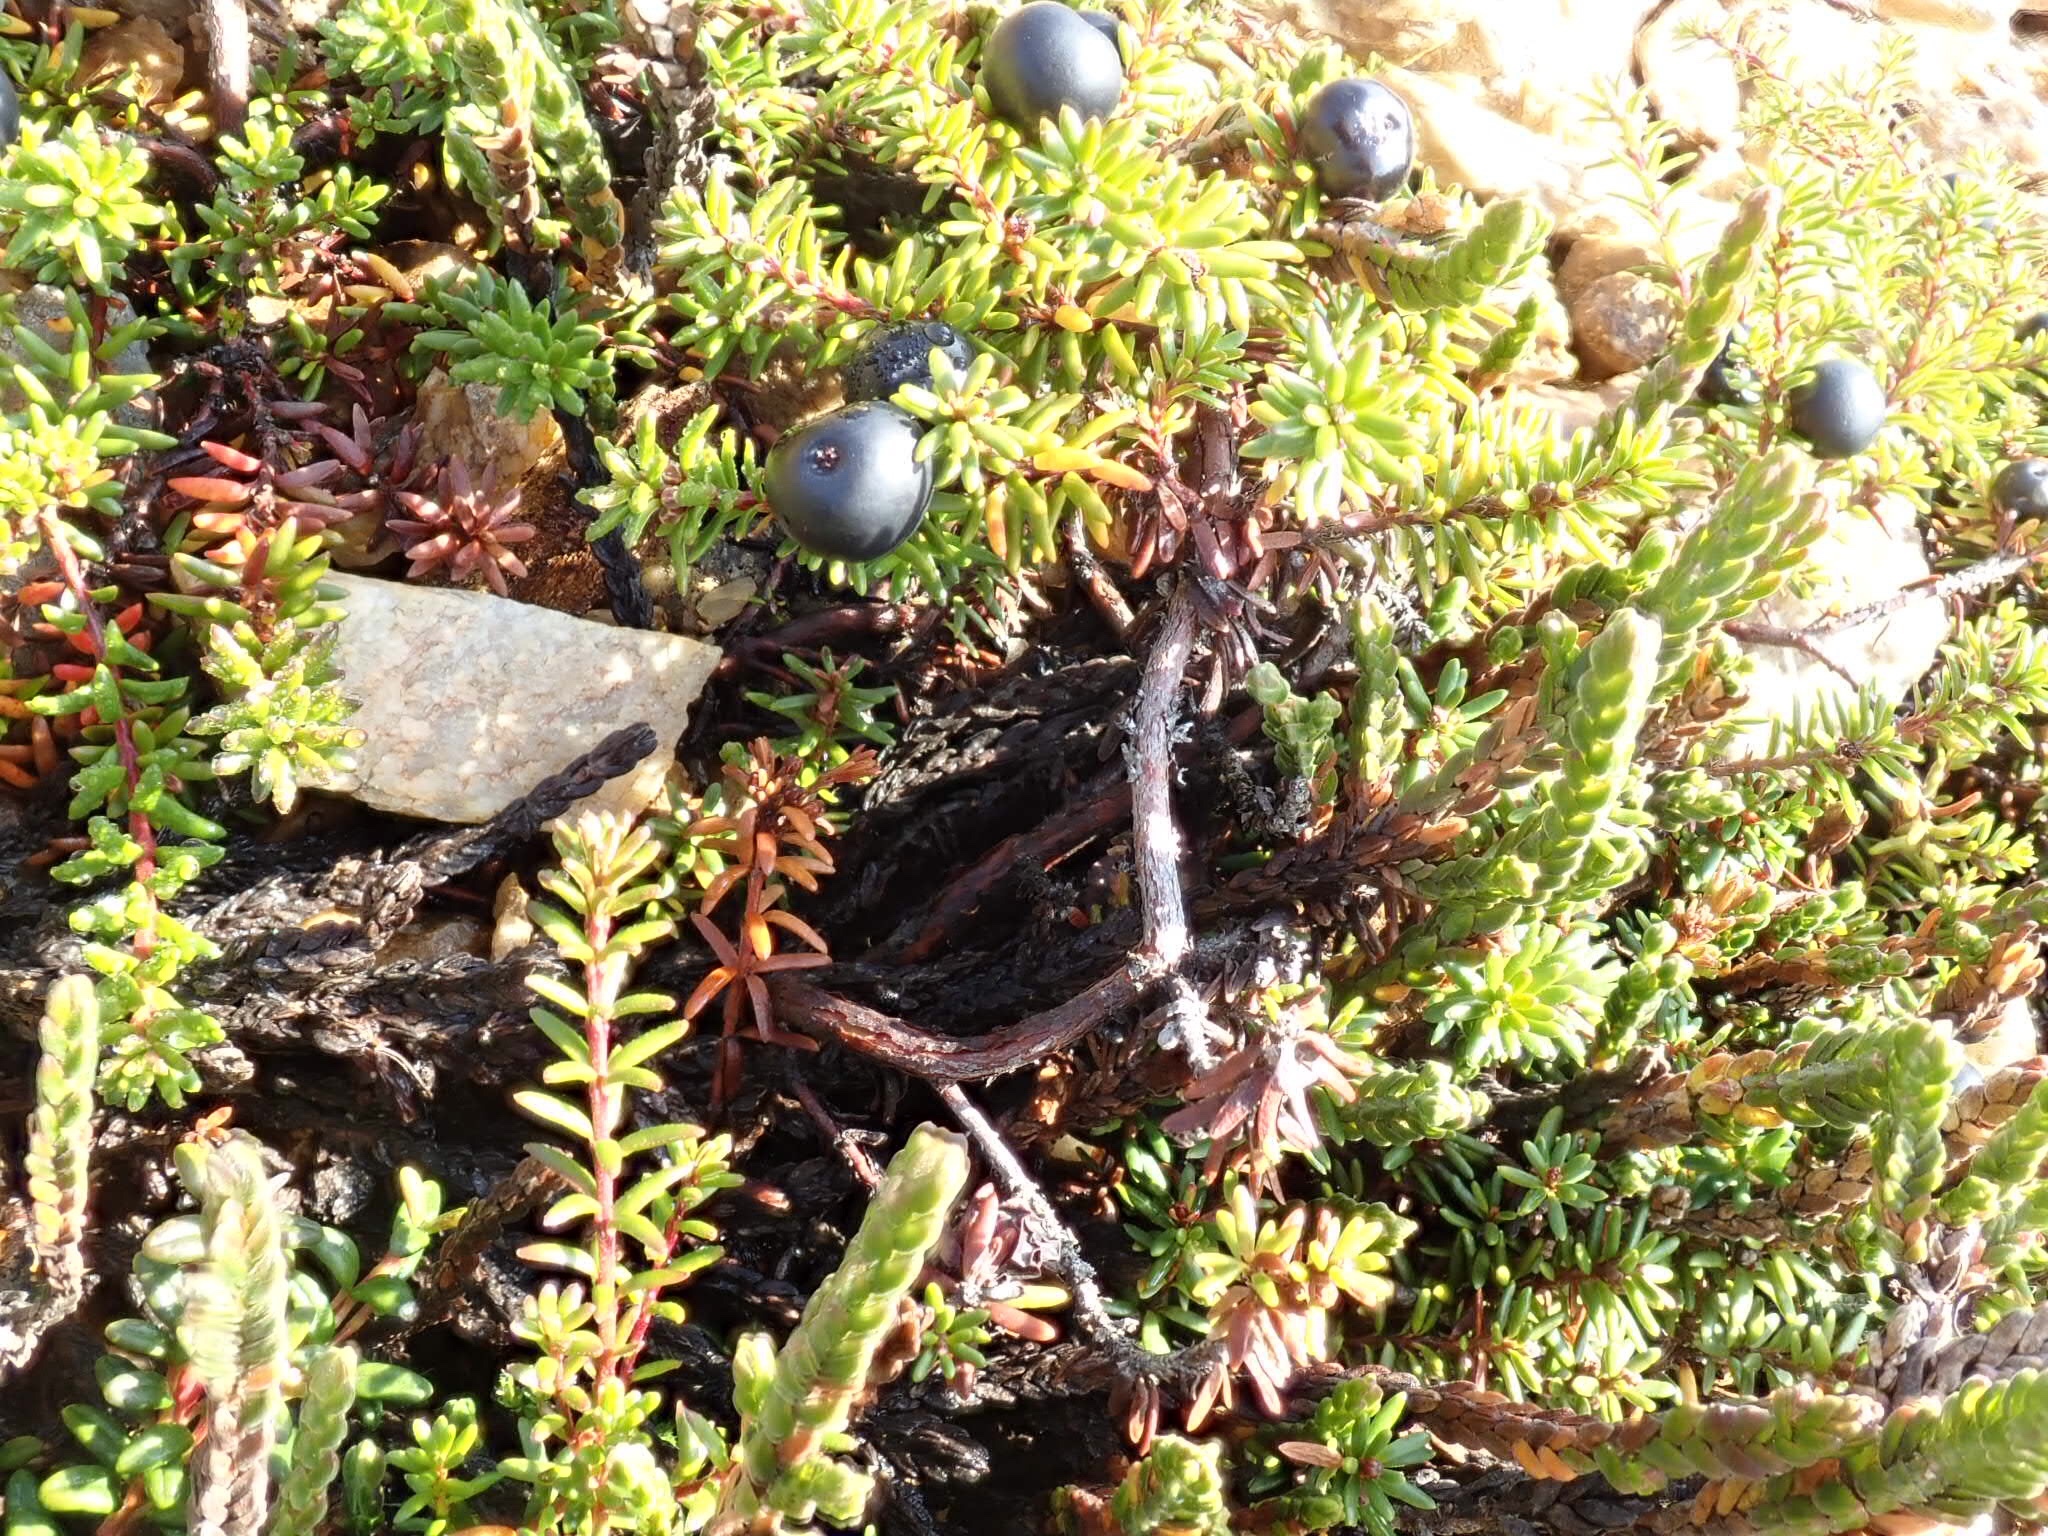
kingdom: Plantae
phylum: Tracheophyta
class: Magnoliopsida
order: Ericales
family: Ericaceae
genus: Empetrum
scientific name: Empetrum nigrum
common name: Black crowberry
